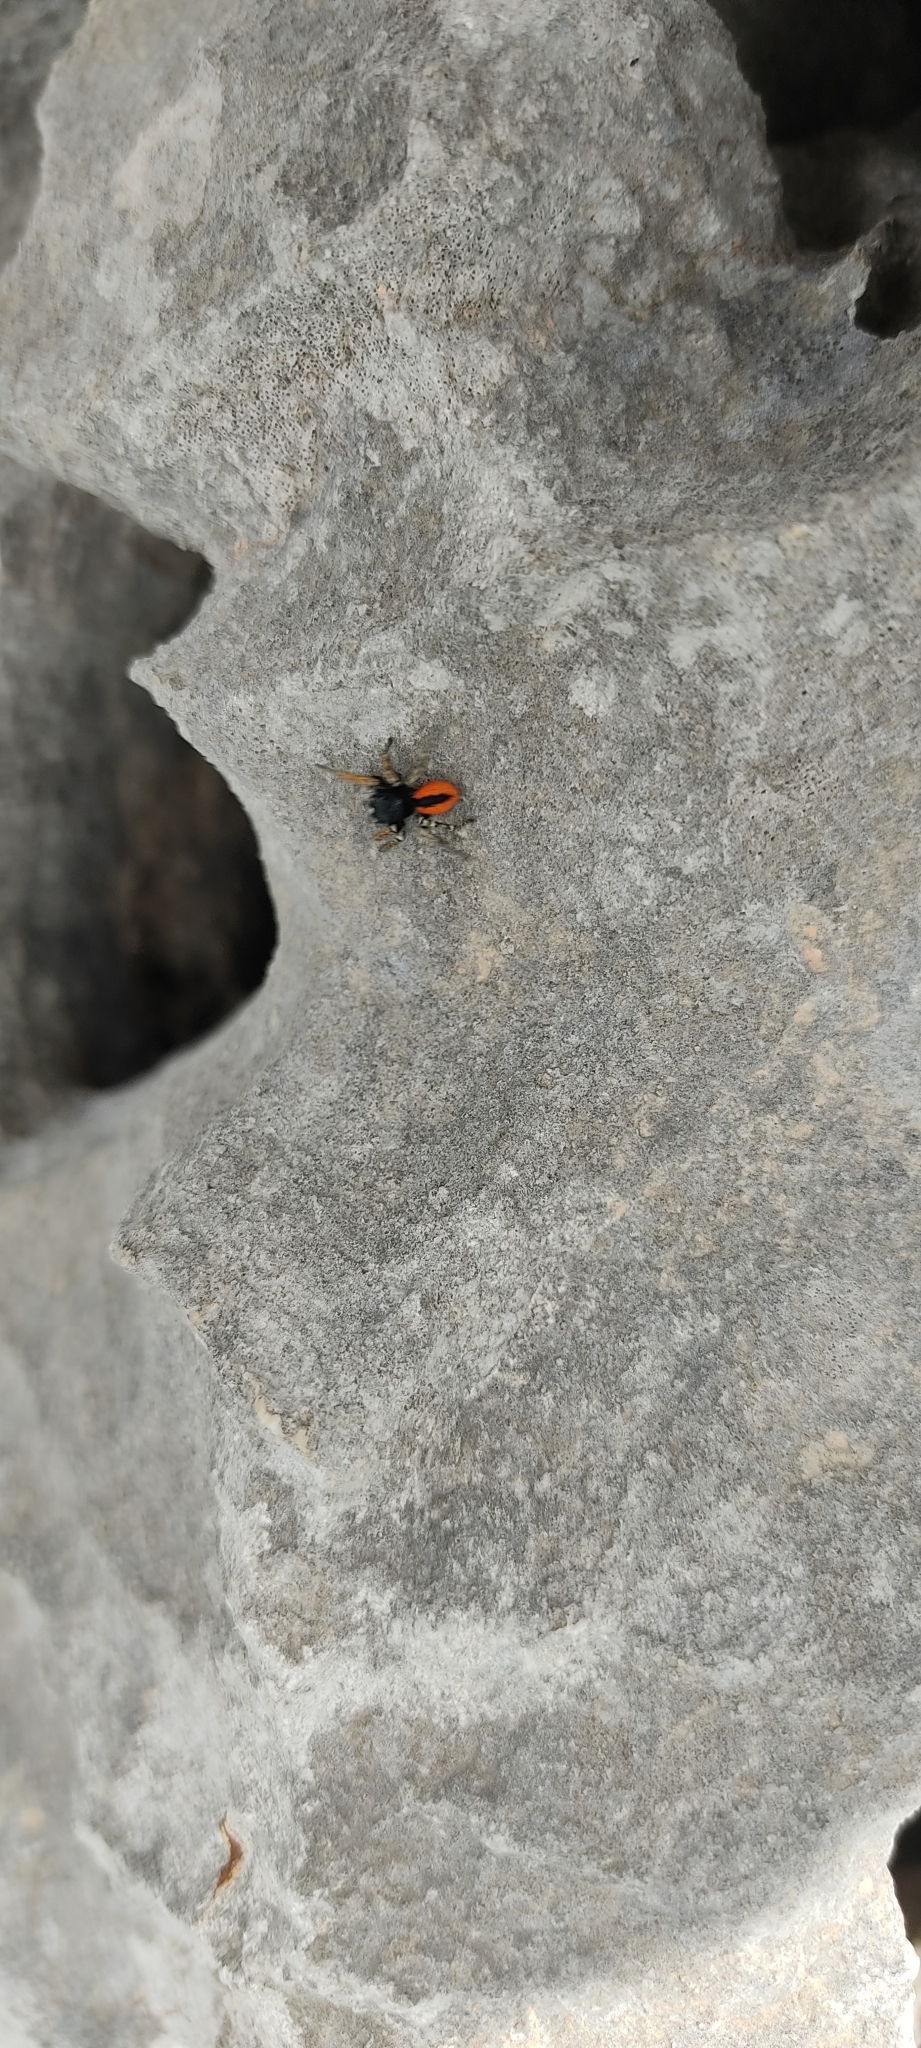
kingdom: Animalia
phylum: Arthropoda
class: Arachnida
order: Araneae
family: Salticidae
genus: Philaeus
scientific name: Philaeus chrysops
